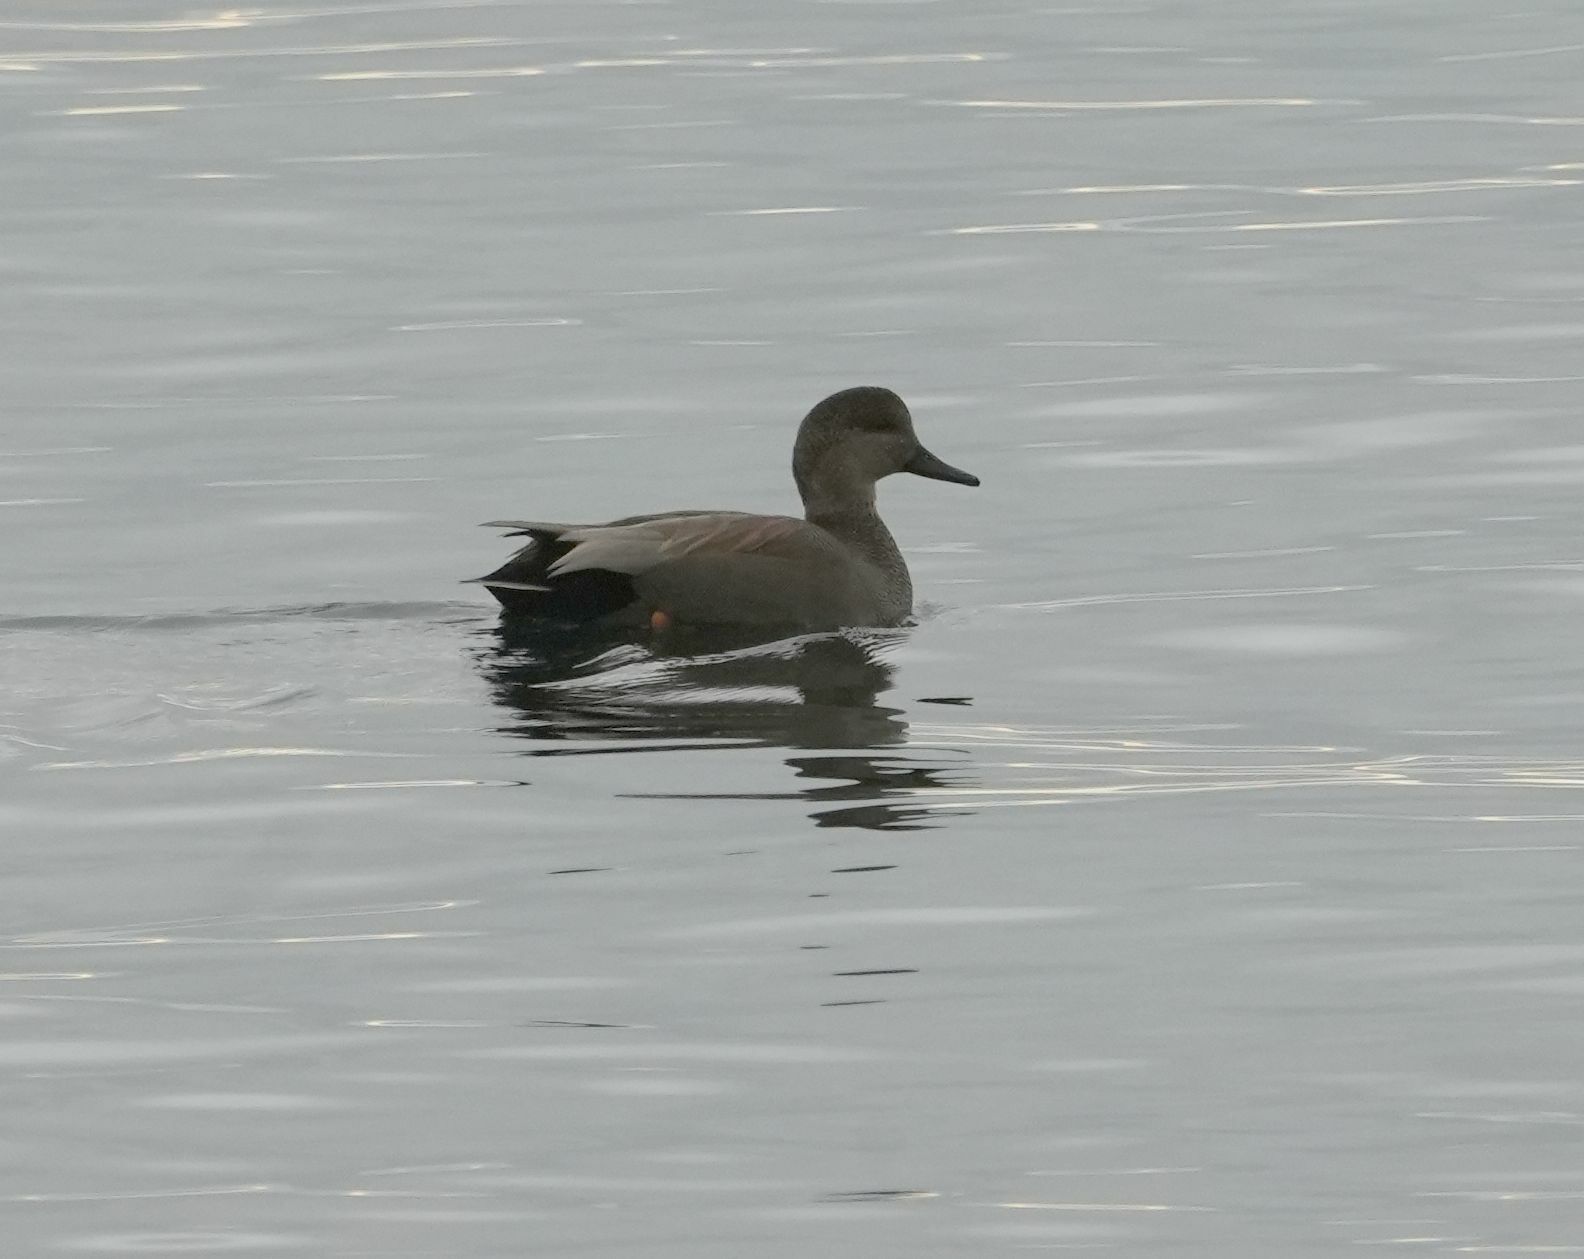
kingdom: Animalia
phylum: Chordata
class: Aves
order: Anseriformes
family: Anatidae
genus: Mareca
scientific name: Mareca strepera
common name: Gadwall
